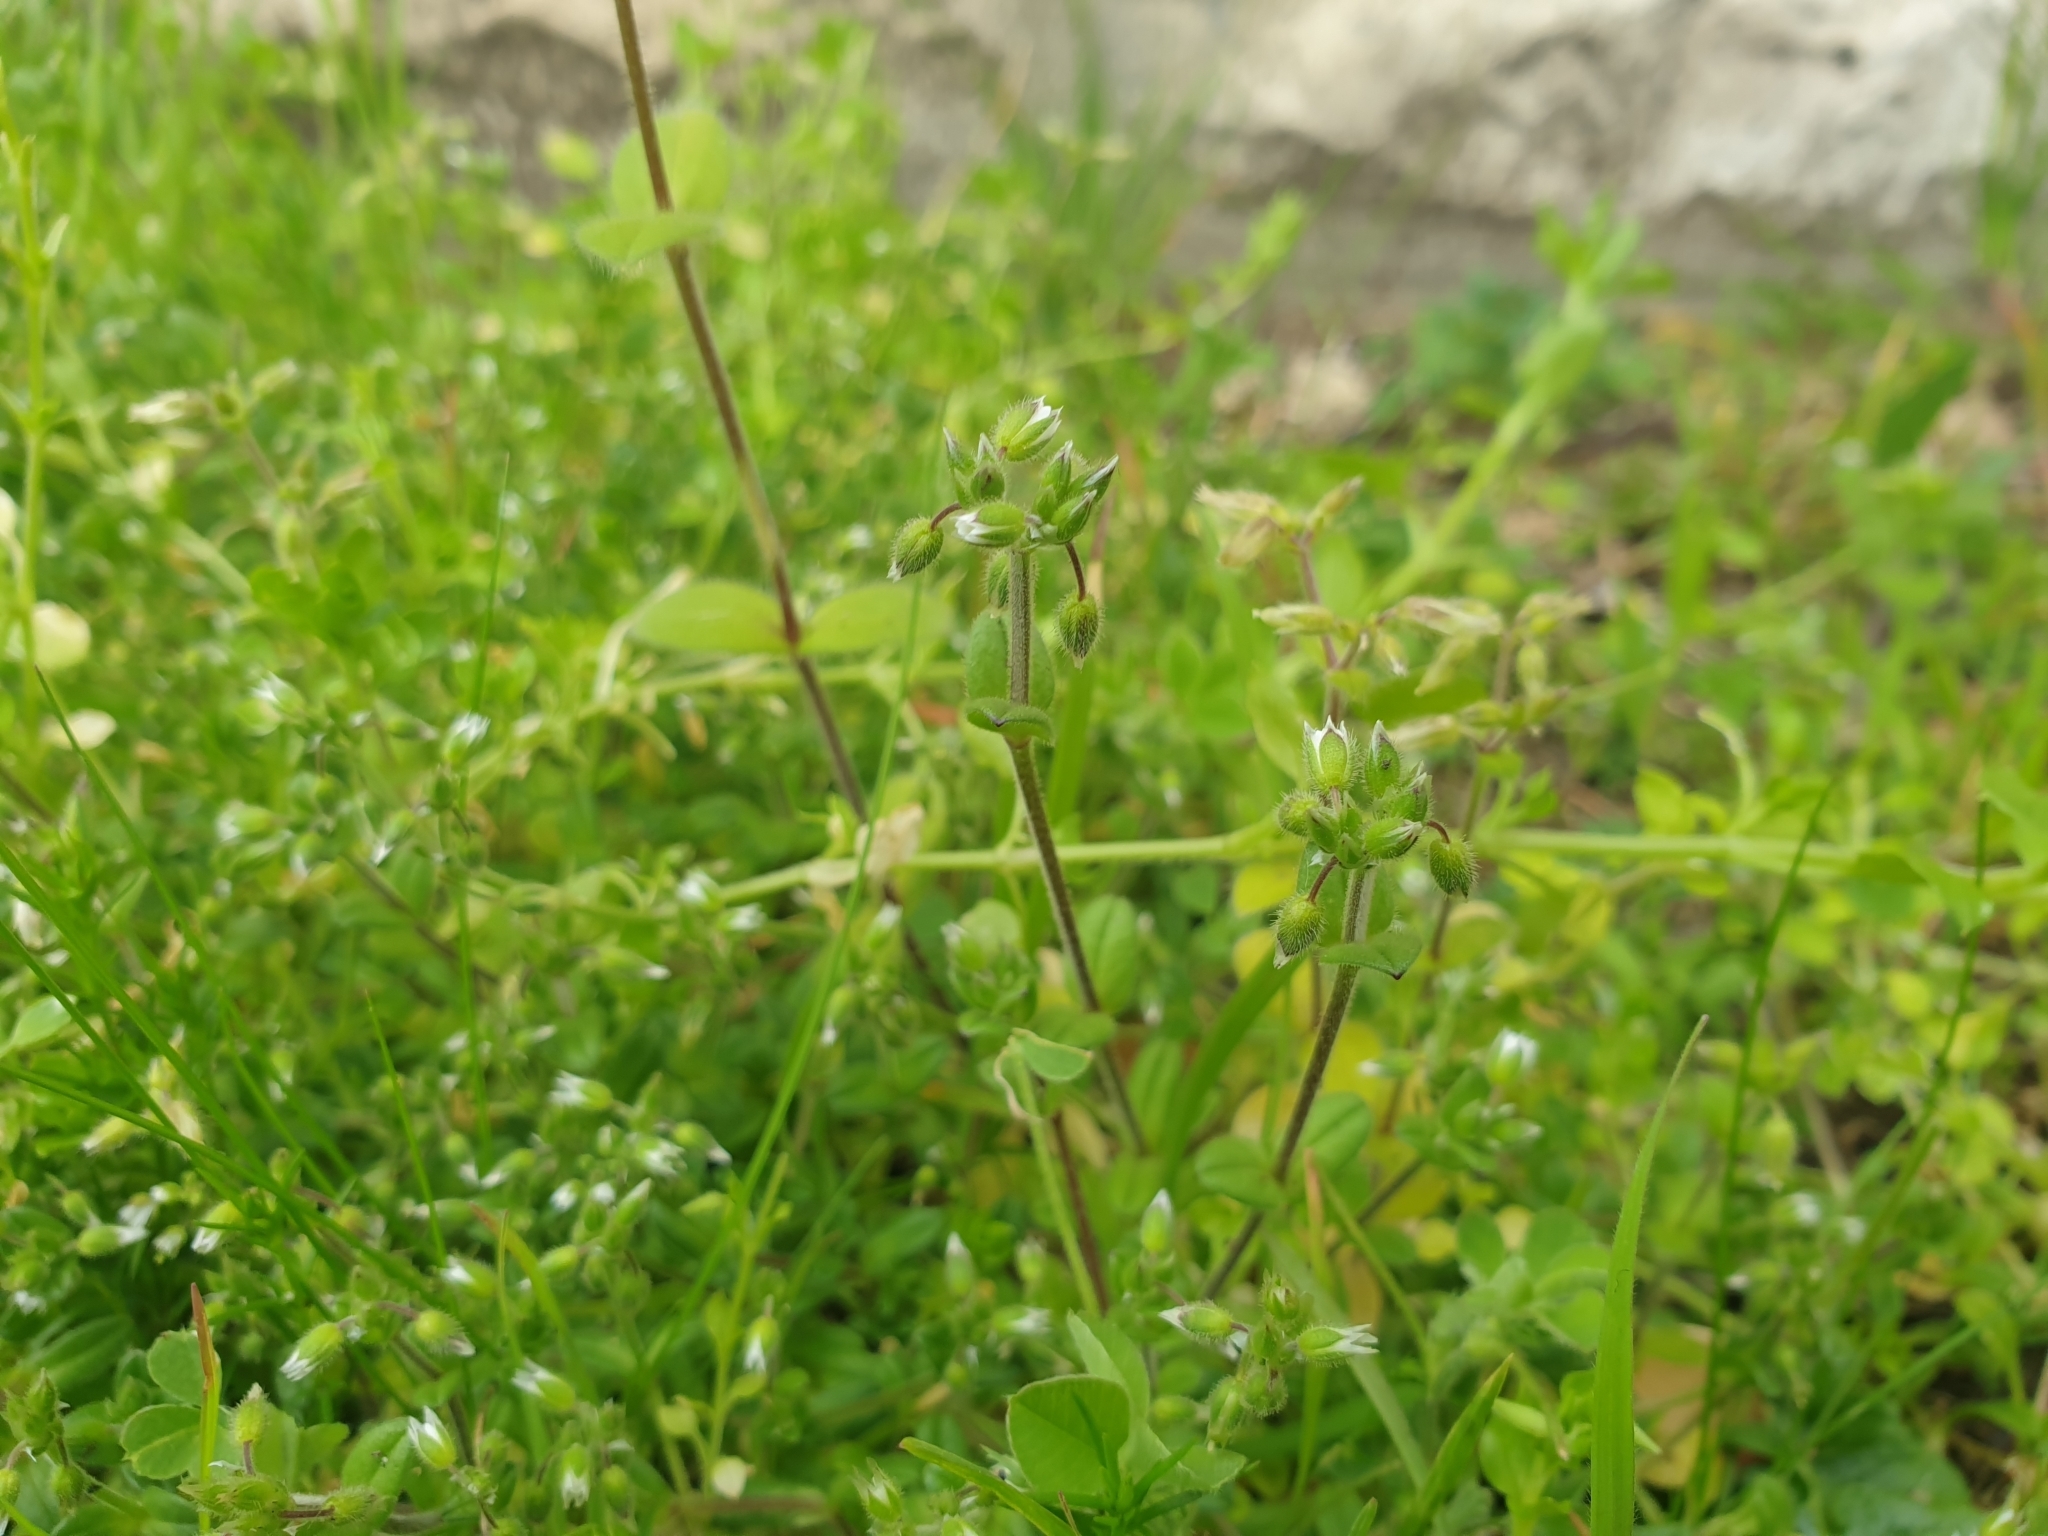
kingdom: Plantae
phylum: Tracheophyta
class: Magnoliopsida
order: Caryophyllales
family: Caryophyllaceae
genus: Cerastium
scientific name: Cerastium semidecandrum
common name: Little mouse-ear
